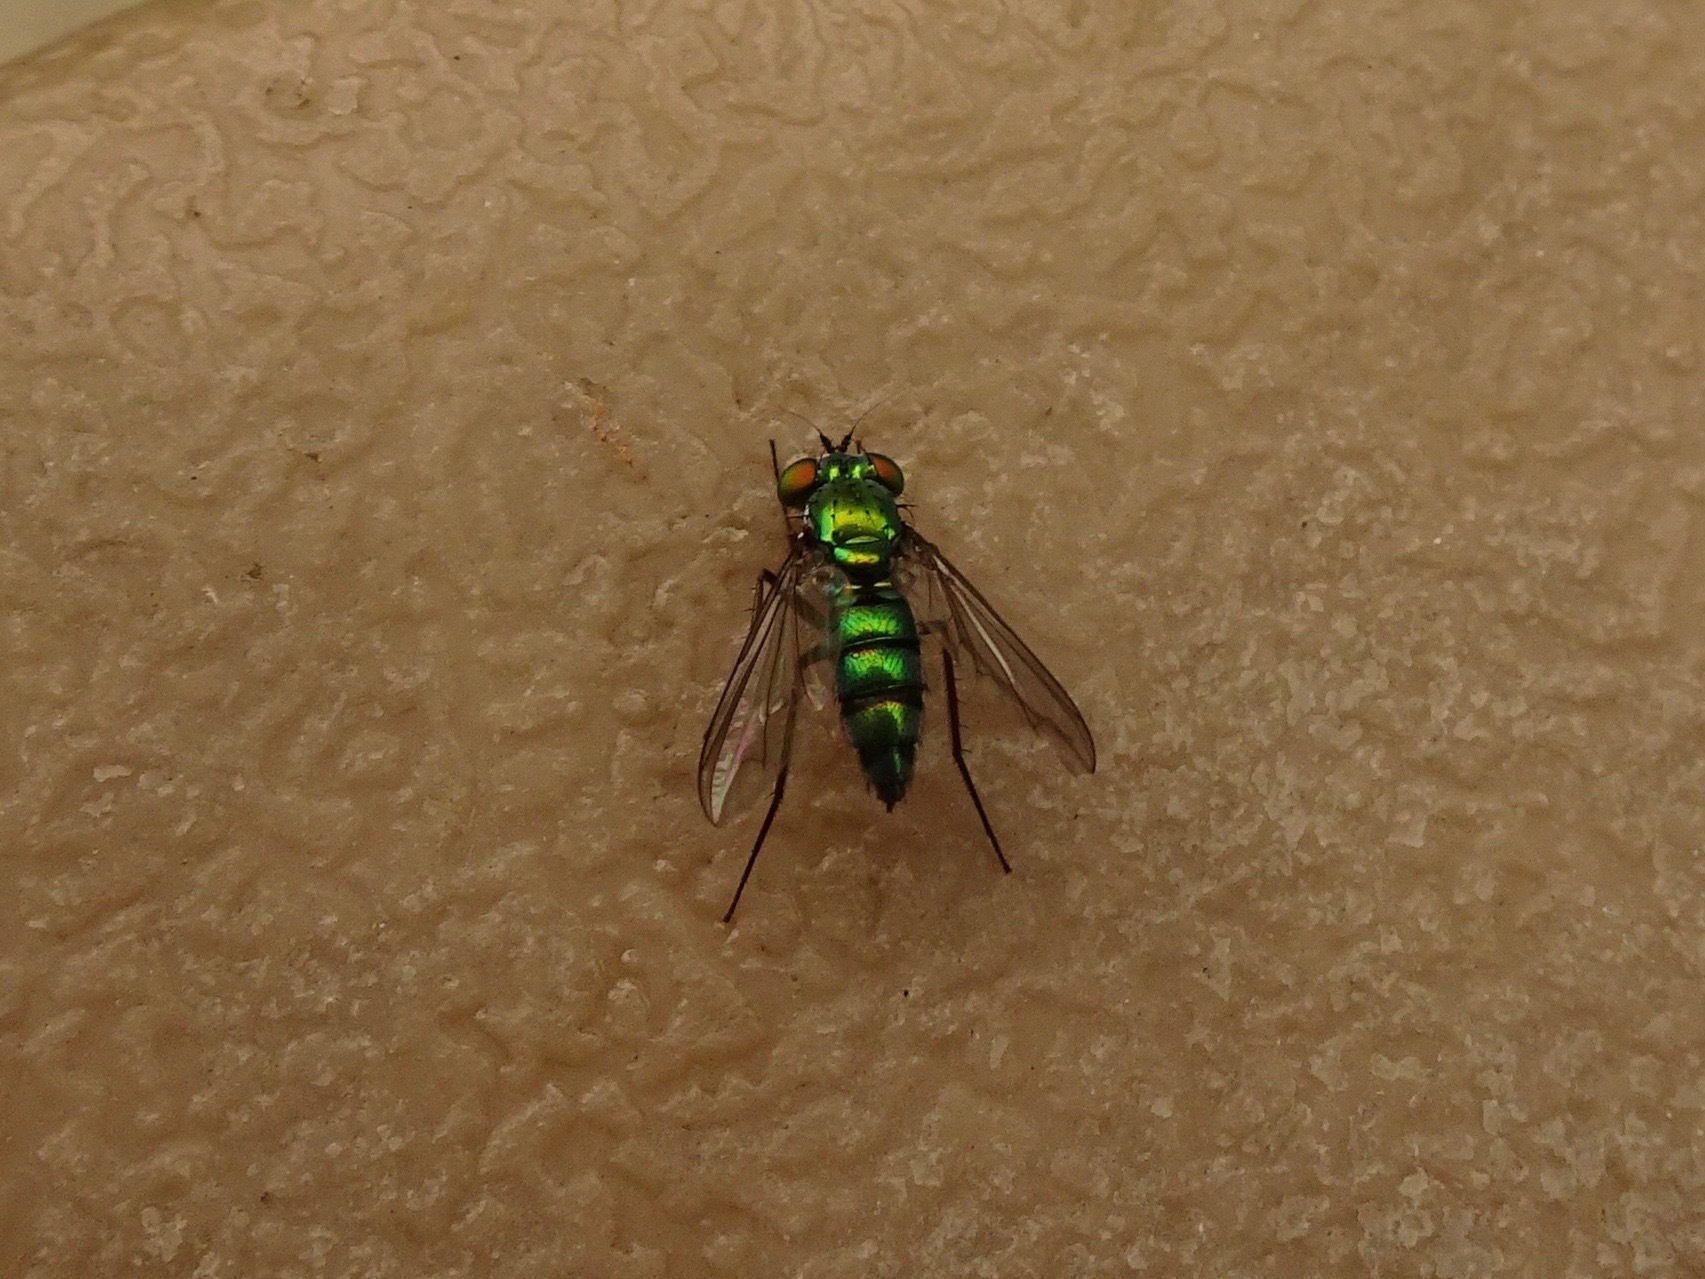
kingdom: Animalia
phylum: Arthropoda
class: Insecta
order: Diptera
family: Dolichopodidae
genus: Condylostylus
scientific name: Condylostylus longicornis
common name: Long-legged fly
